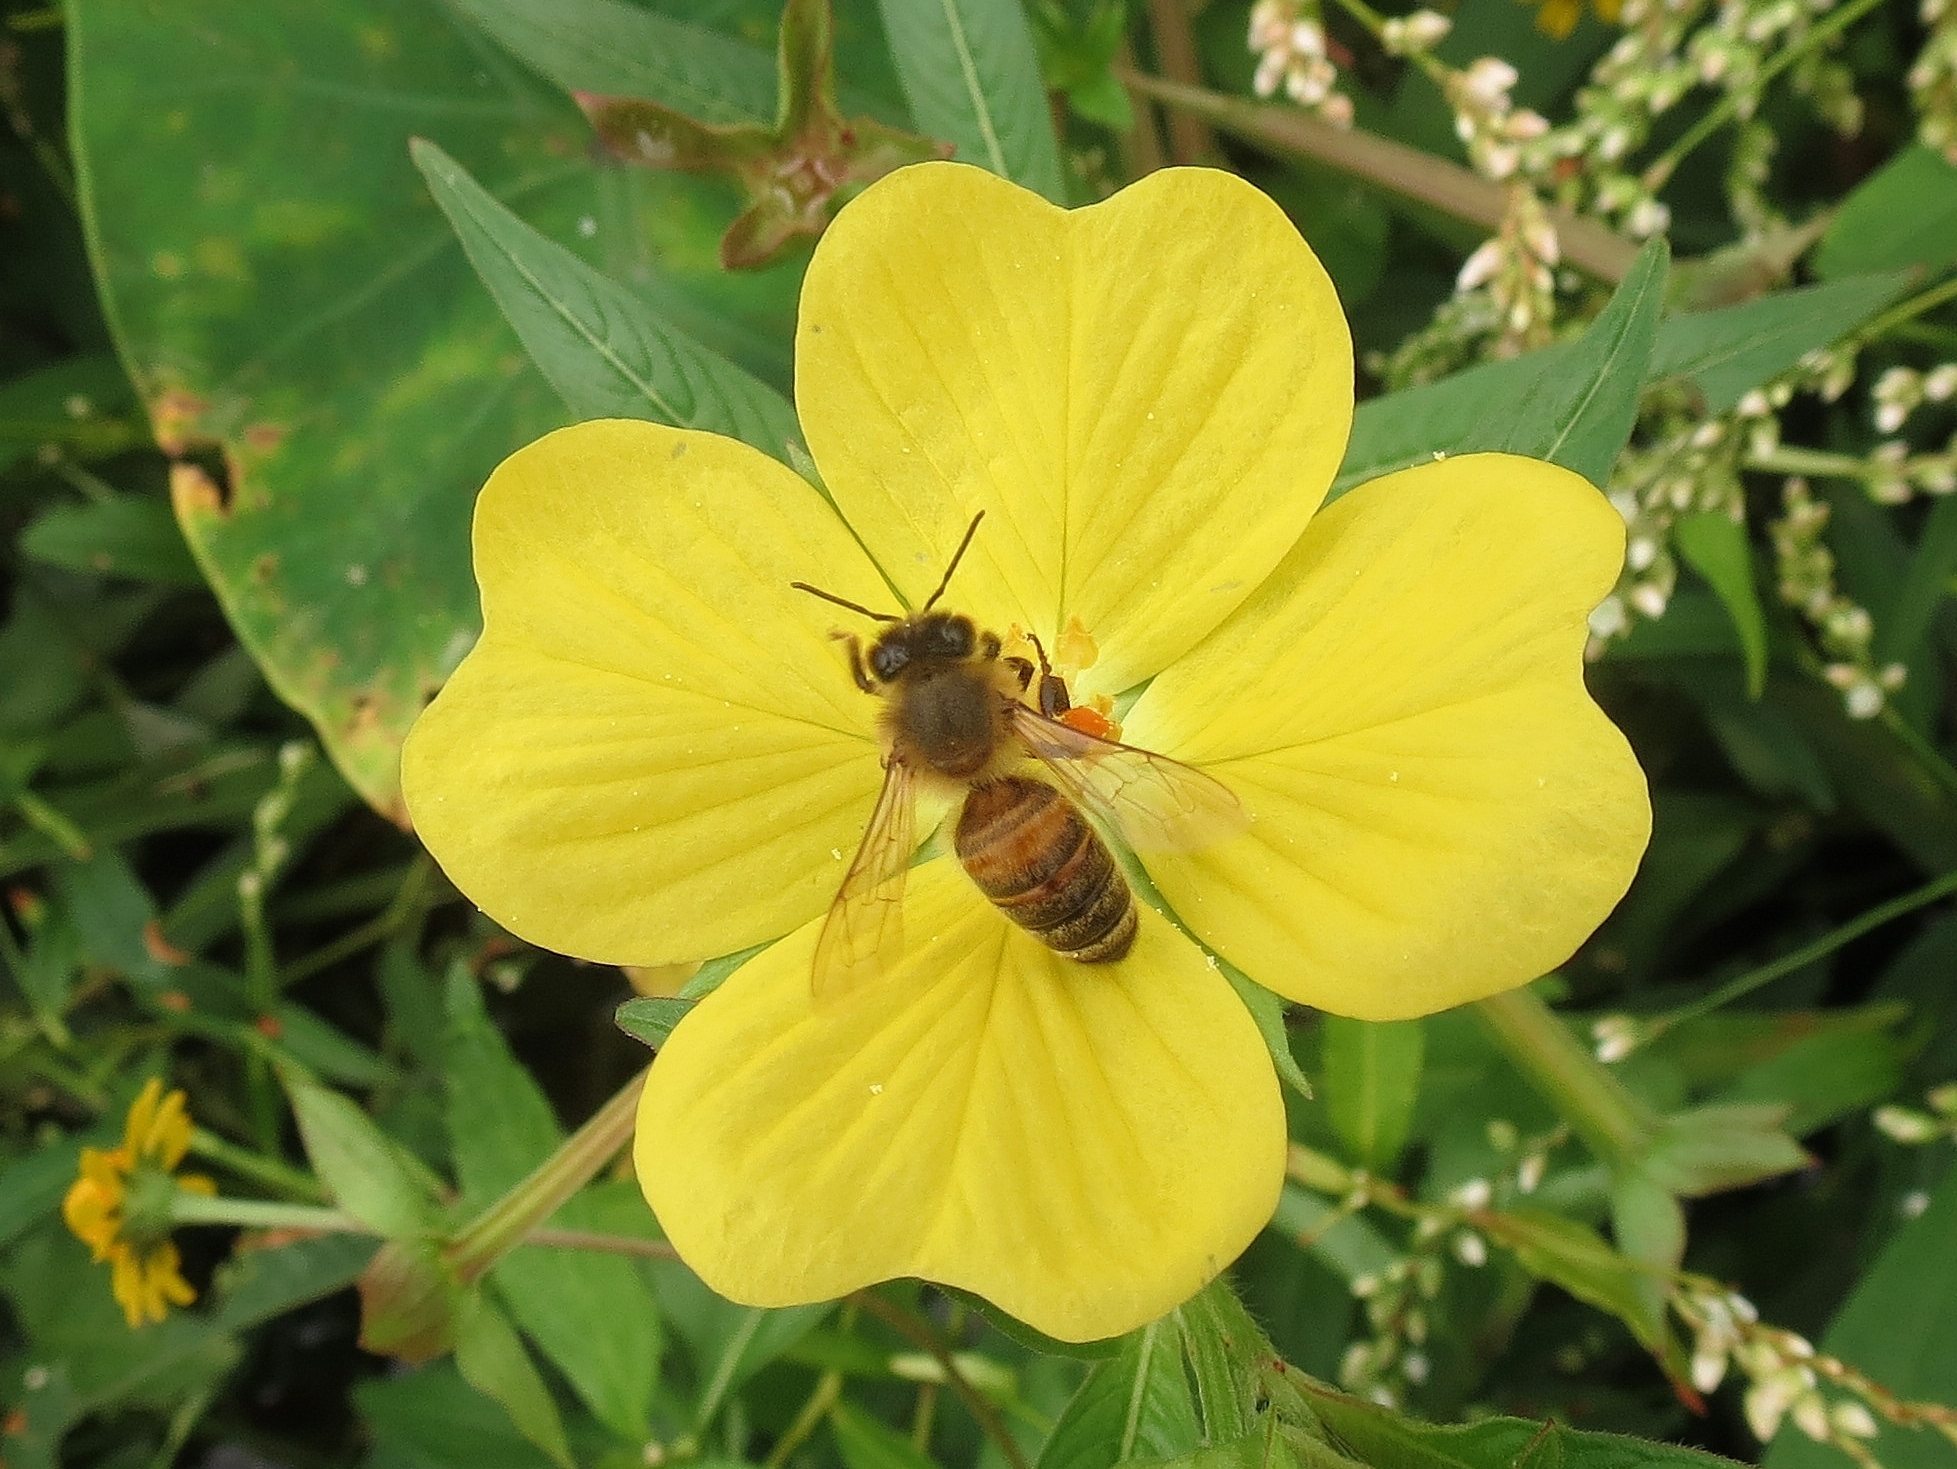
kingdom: Animalia
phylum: Arthropoda
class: Insecta
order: Hymenoptera
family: Apidae
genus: Apis
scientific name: Apis mellifera
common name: Honey bee
